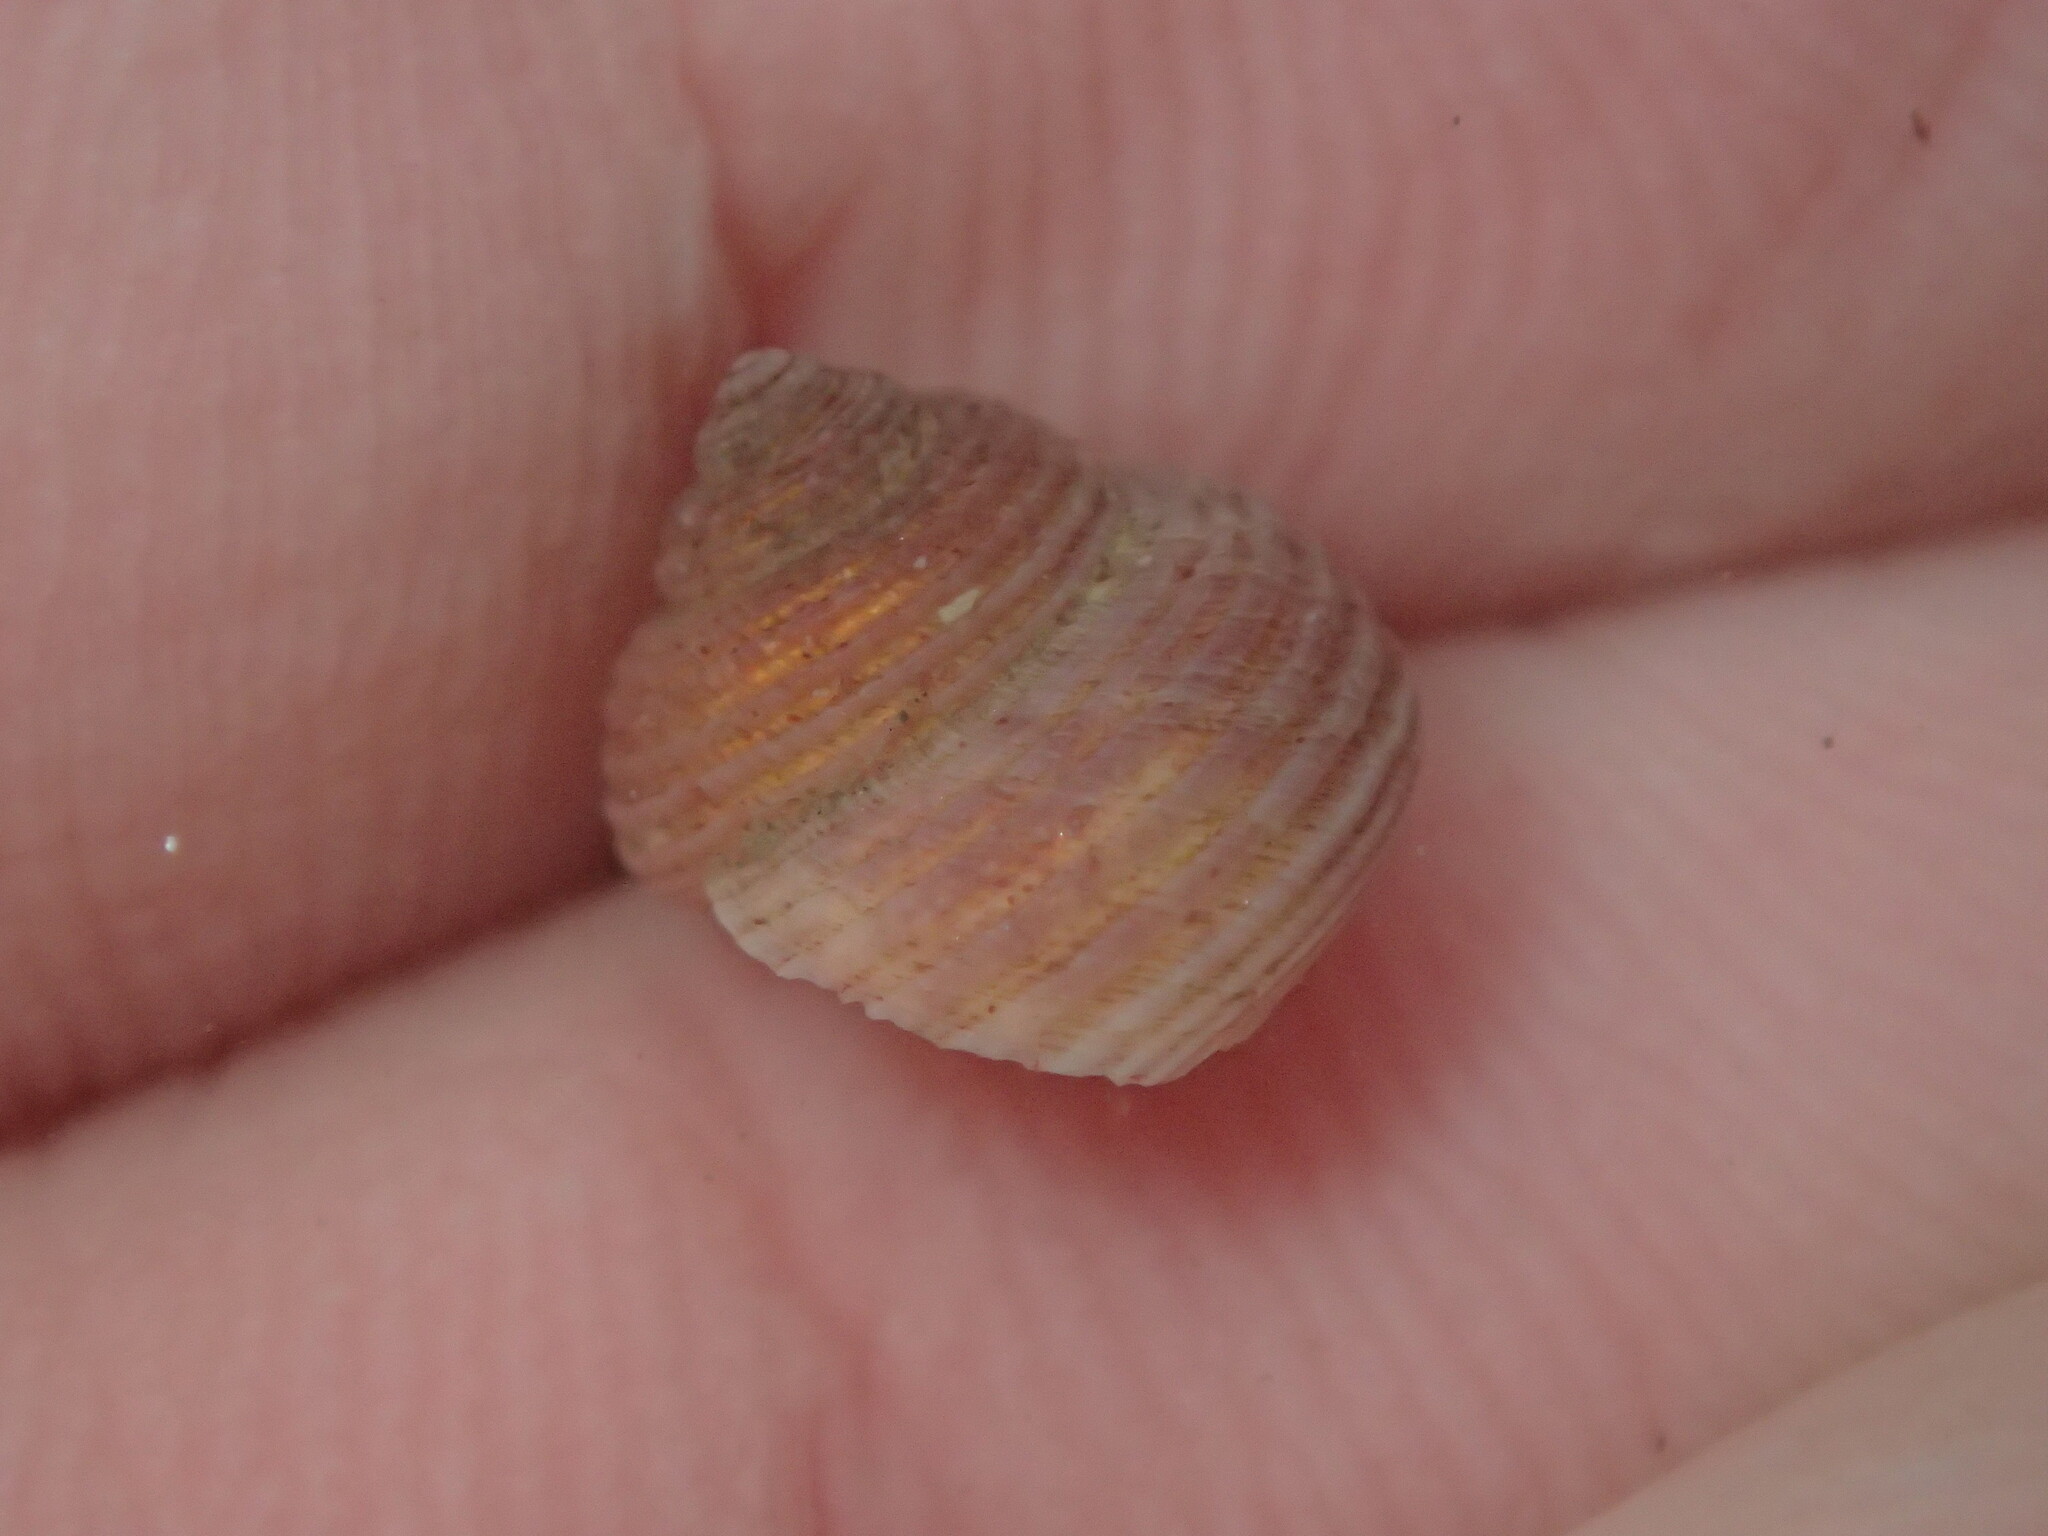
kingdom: Animalia
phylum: Mollusca
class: Gastropoda
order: Trochida
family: Margaritidae
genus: Margarites
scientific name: Margarites pupillus
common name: Puppet margarite
